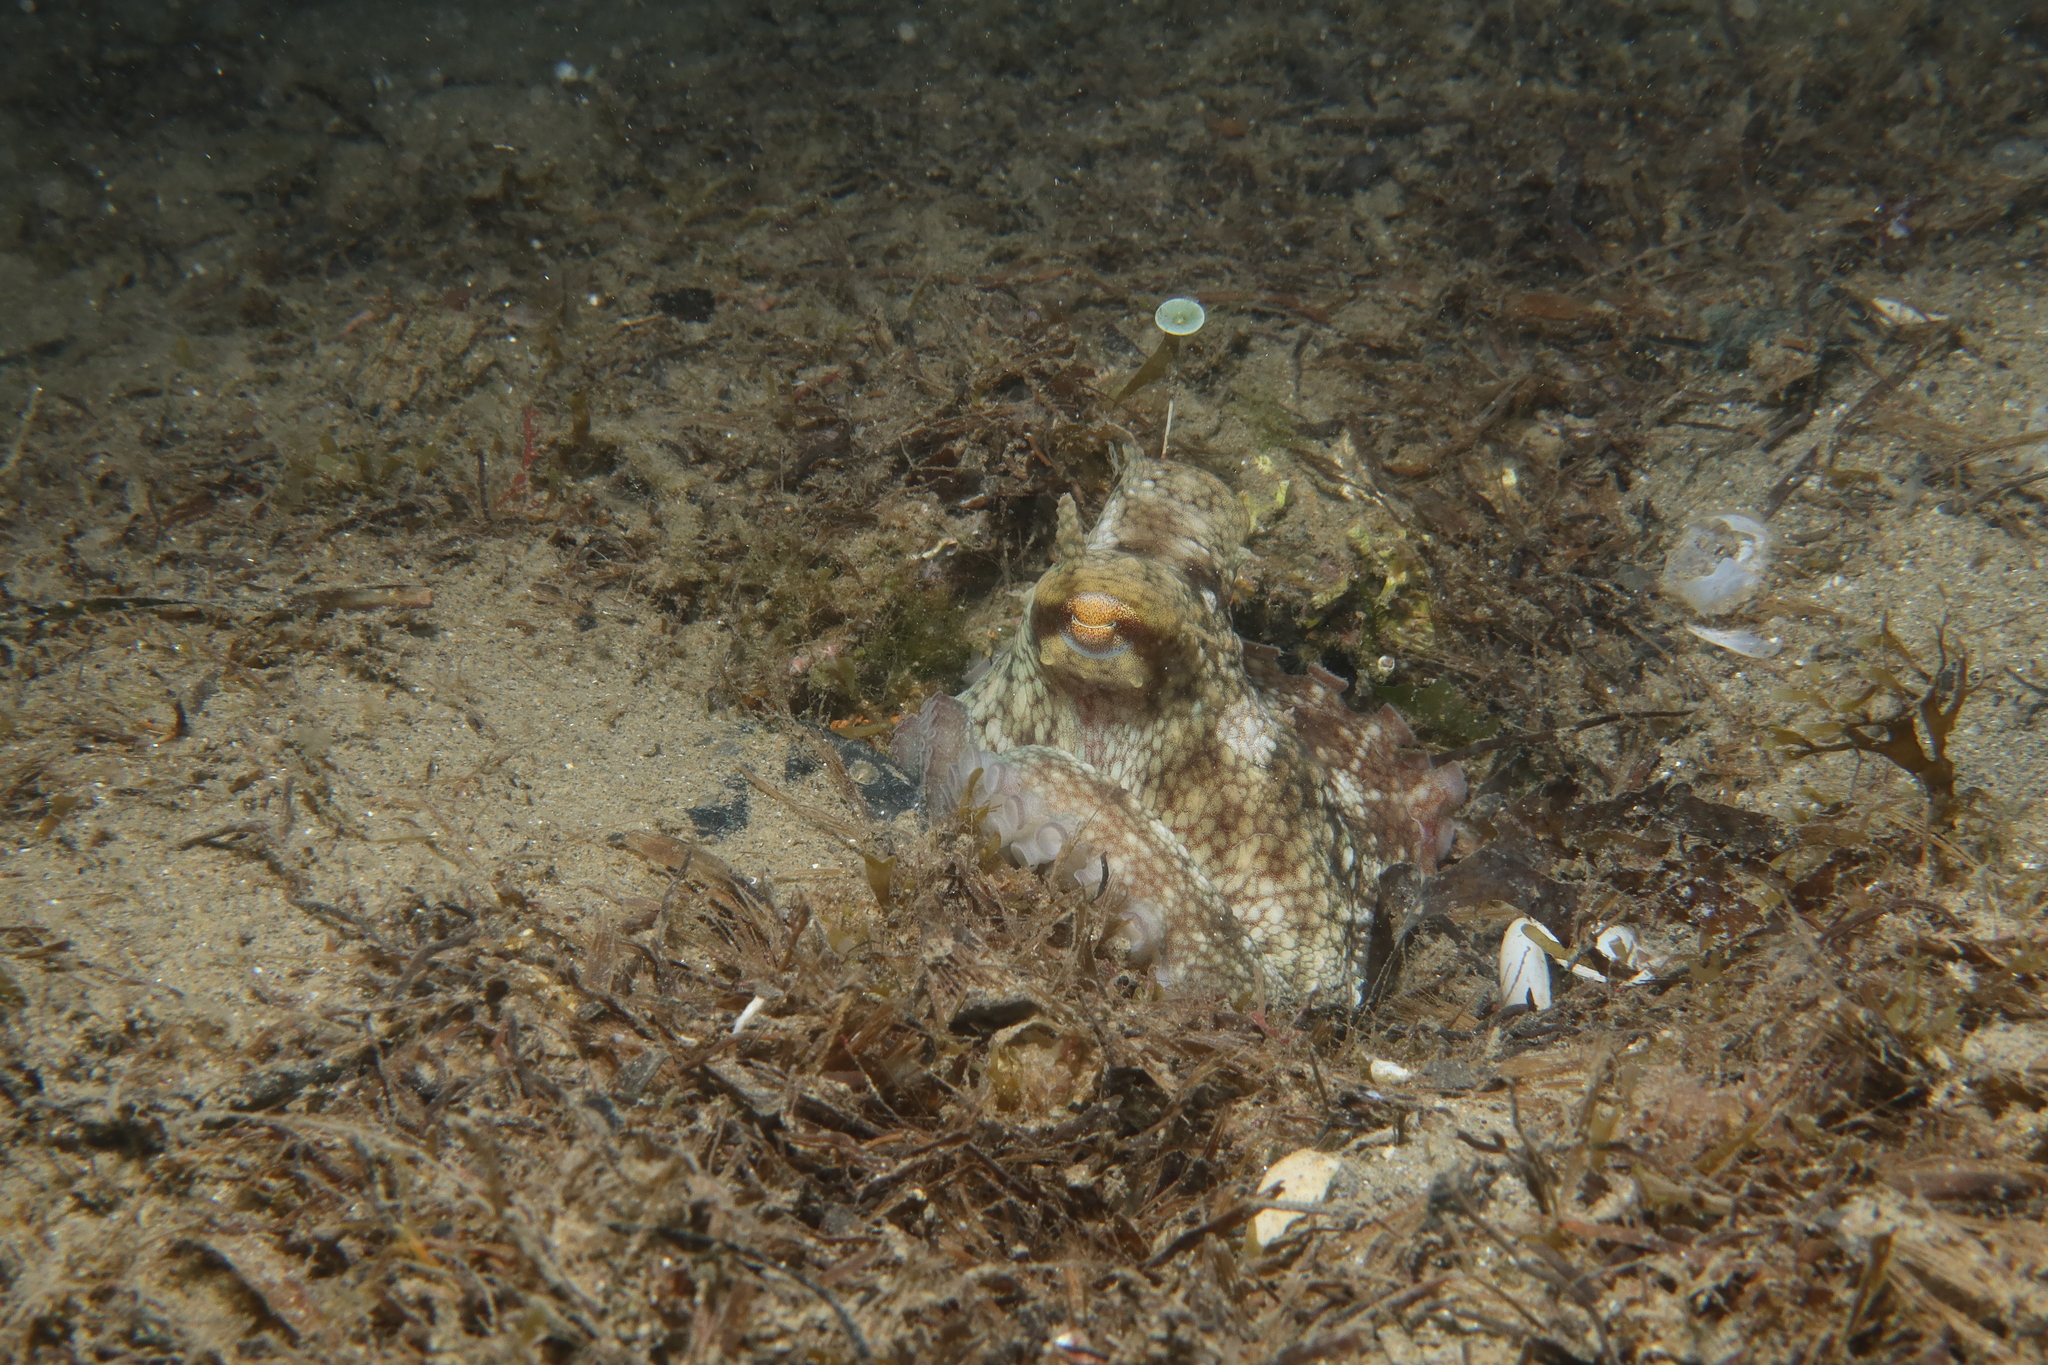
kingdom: Animalia
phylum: Mollusca
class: Cephalopoda
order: Octopoda
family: Octopodidae
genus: Octopus
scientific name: Octopus vulgaris
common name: Common octopus
